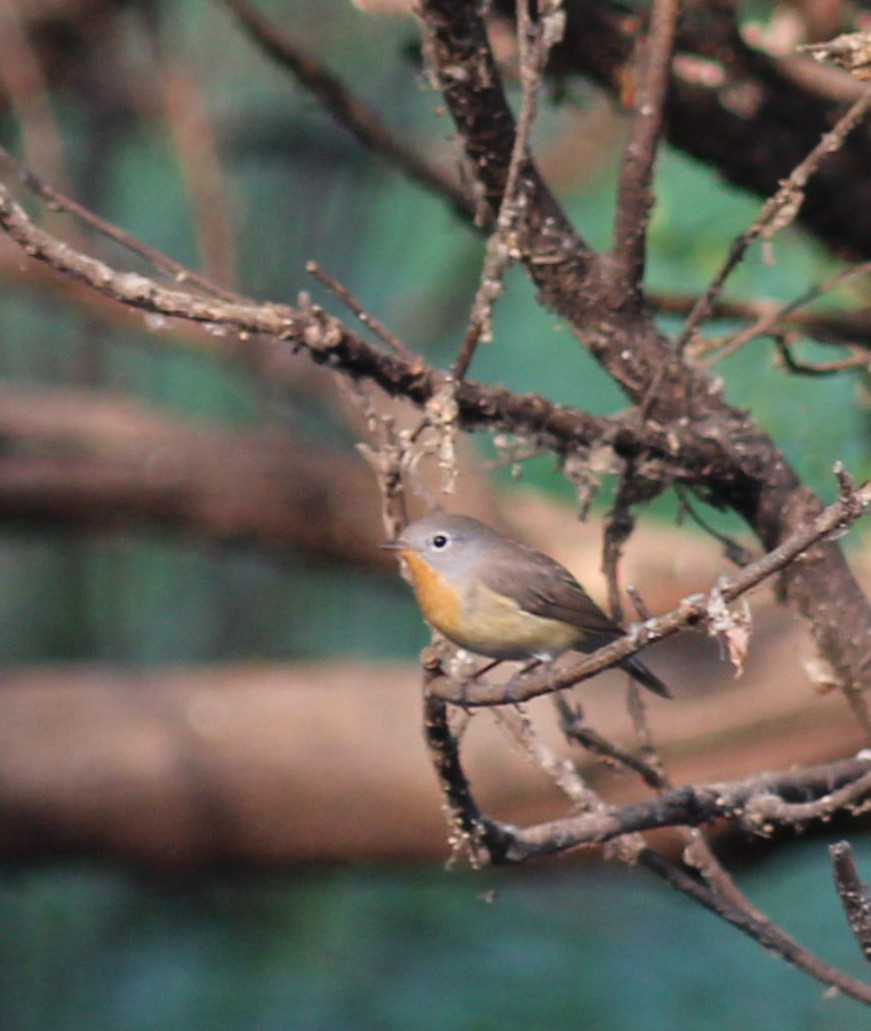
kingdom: Animalia
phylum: Chordata
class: Aves
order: Passeriformes
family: Muscicapidae
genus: Ficedula
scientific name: Ficedula parva
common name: Red-breasted flycatcher
